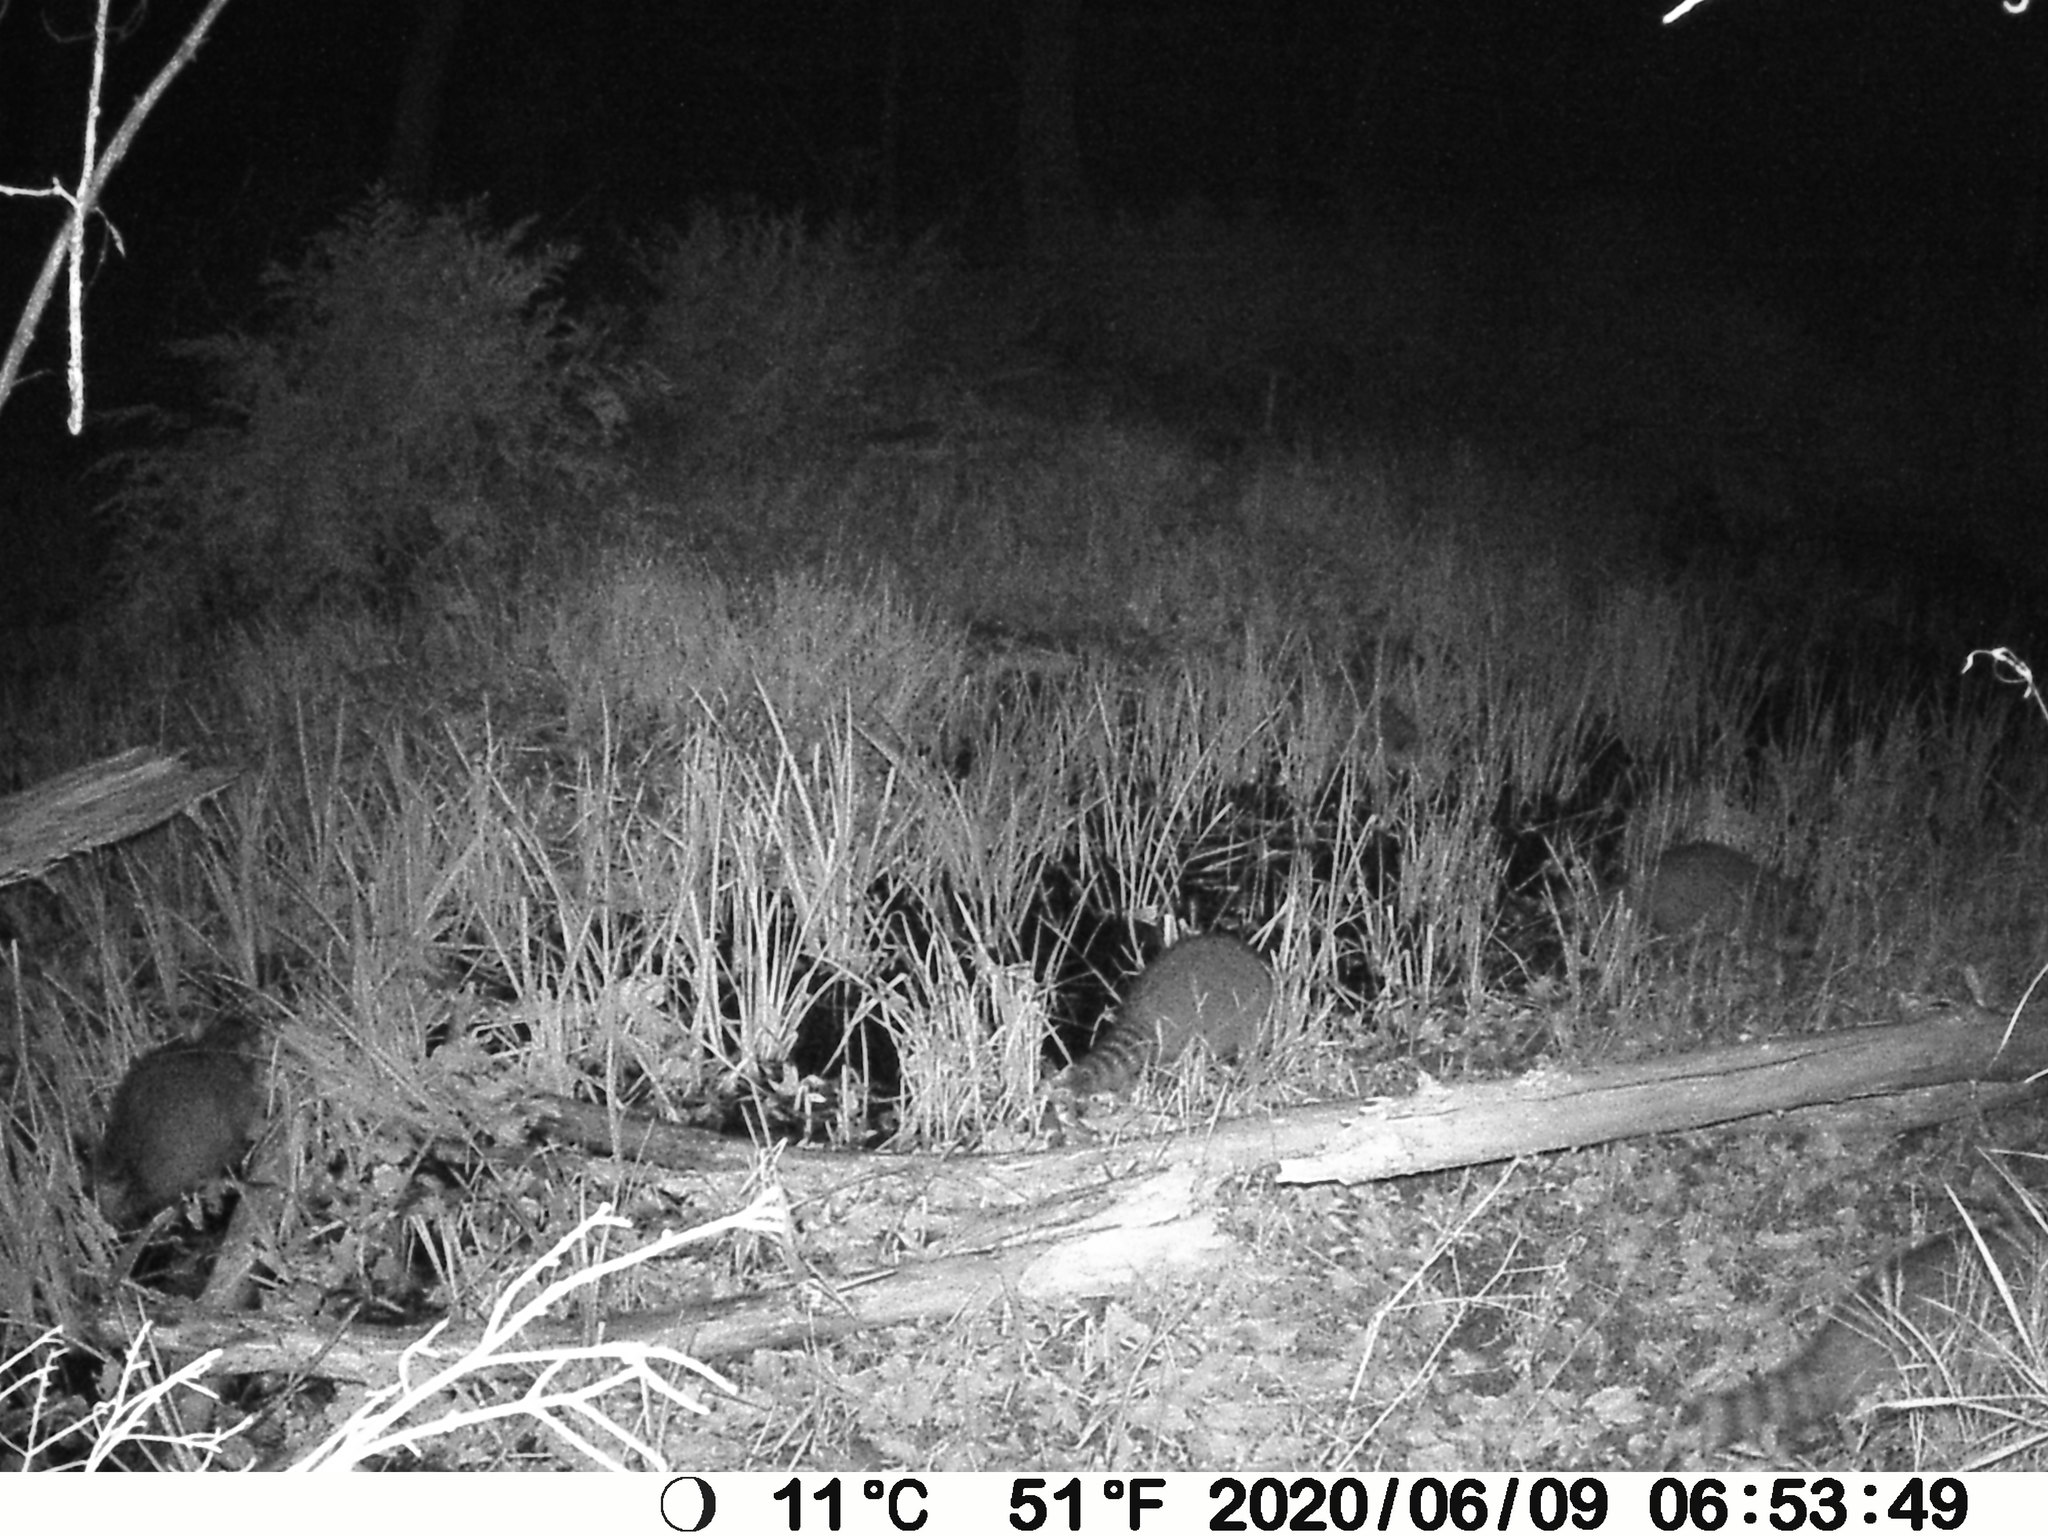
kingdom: Animalia
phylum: Chordata
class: Mammalia
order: Carnivora
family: Procyonidae
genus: Procyon
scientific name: Procyon lotor
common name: Raccoon
